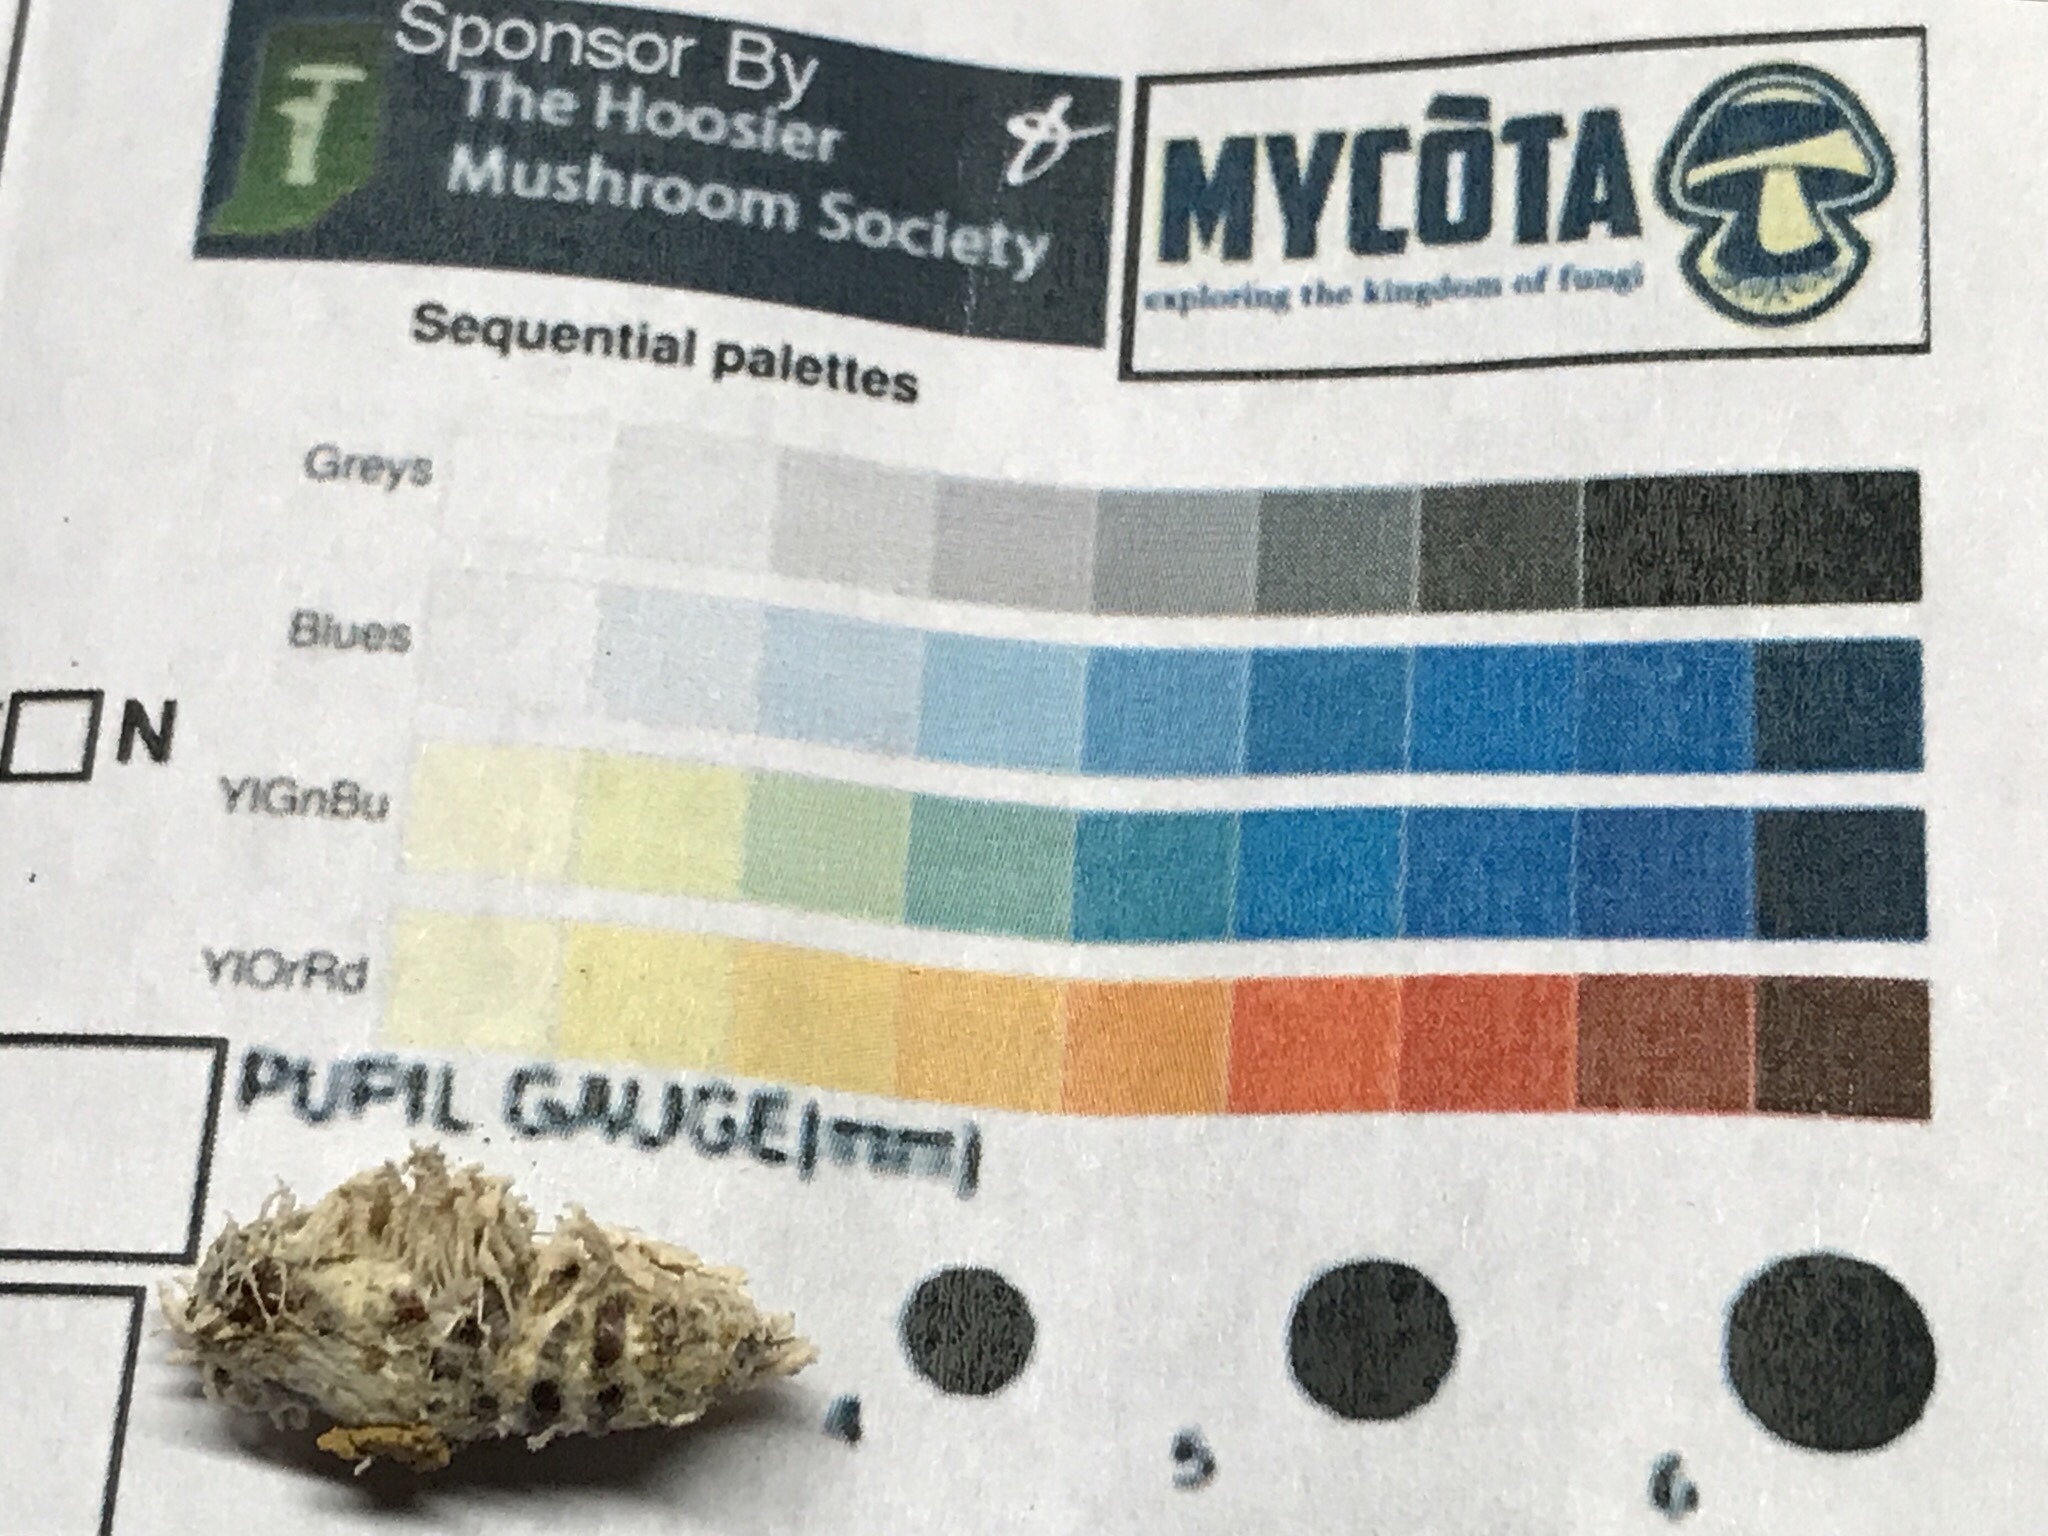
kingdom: Fungi
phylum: Ascomycota
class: Sordariomycetes
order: Hypocreales
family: Cordycipitaceae
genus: Cordyceps
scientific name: Cordyceps fumosorosea
